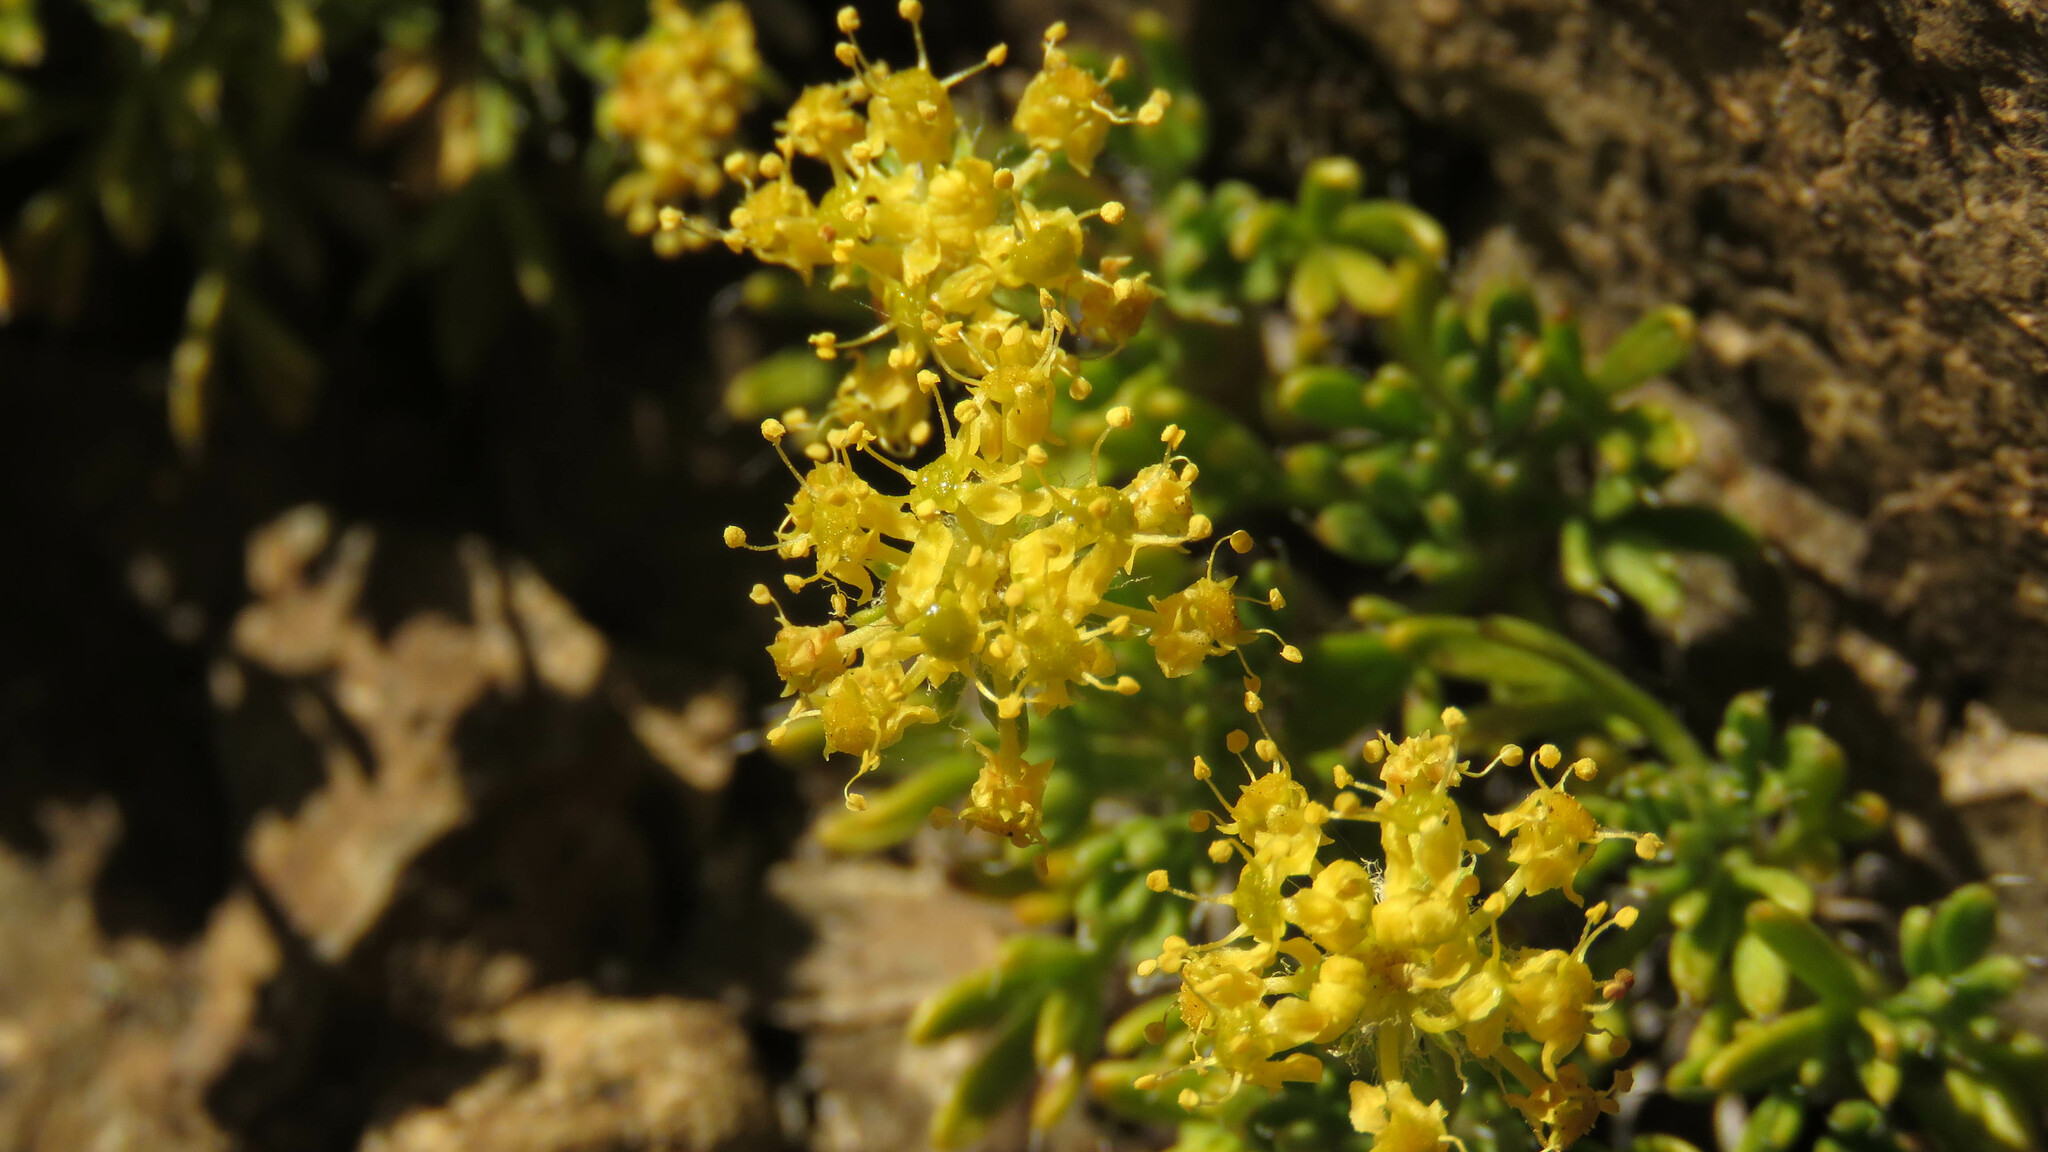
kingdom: Plantae
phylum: Tracheophyta
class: Magnoliopsida
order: Apiales
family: Apiaceae
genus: Azorella
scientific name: Azorella microphylla
